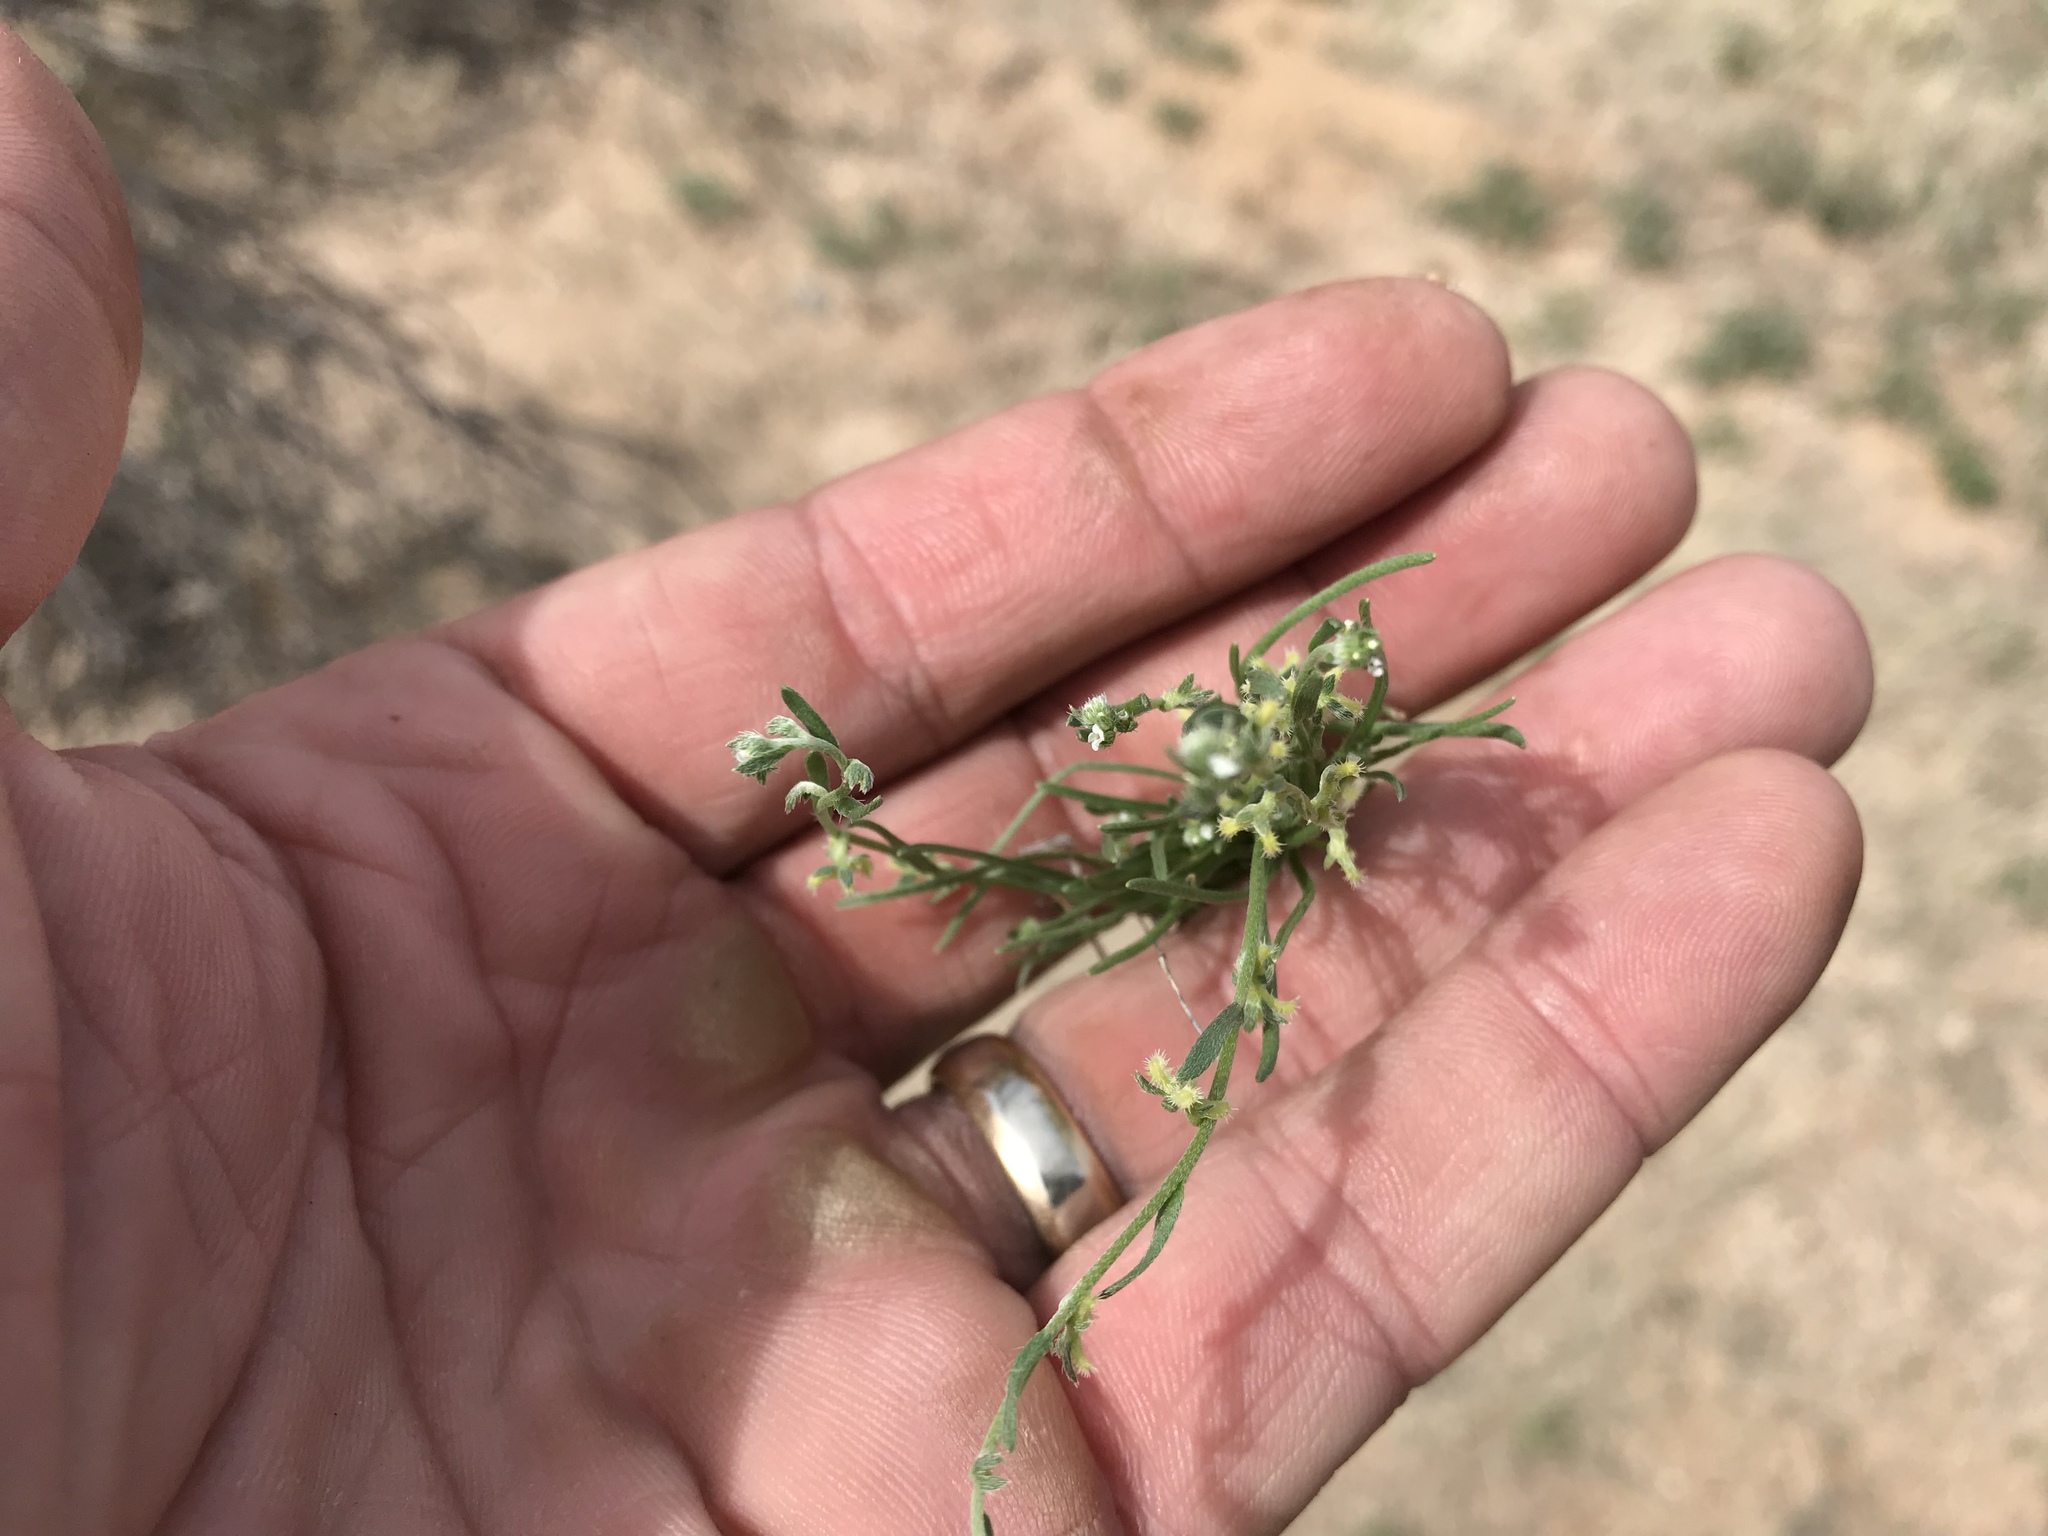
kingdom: Plantae
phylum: Tracheophyta
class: Magnoliopsida
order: Boraginales
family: Boraginaceae
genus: Pectocarya
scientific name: Pectocarya heterocarpa
